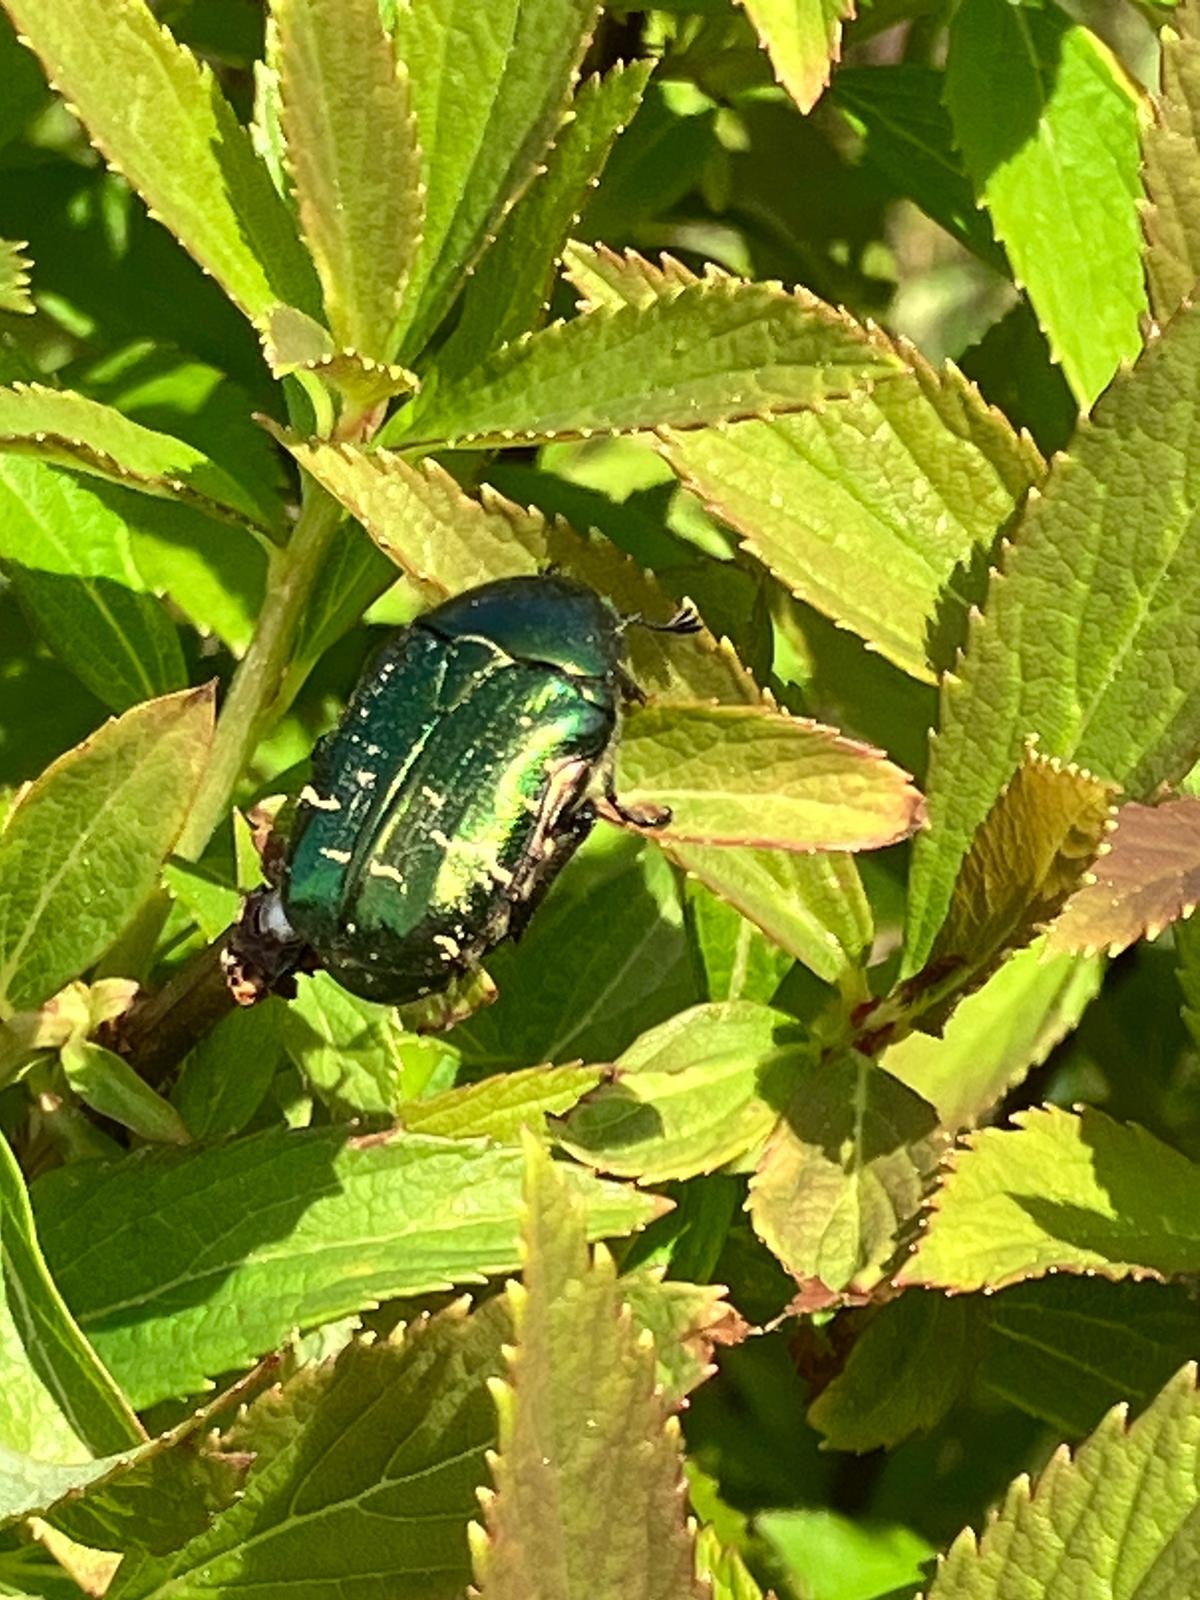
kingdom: Animalia
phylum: Arthropoda
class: Insecta
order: Coleoptera
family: Scarabaeidae
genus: Cetonia
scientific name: Cetonia aurata
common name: Rose chafer
